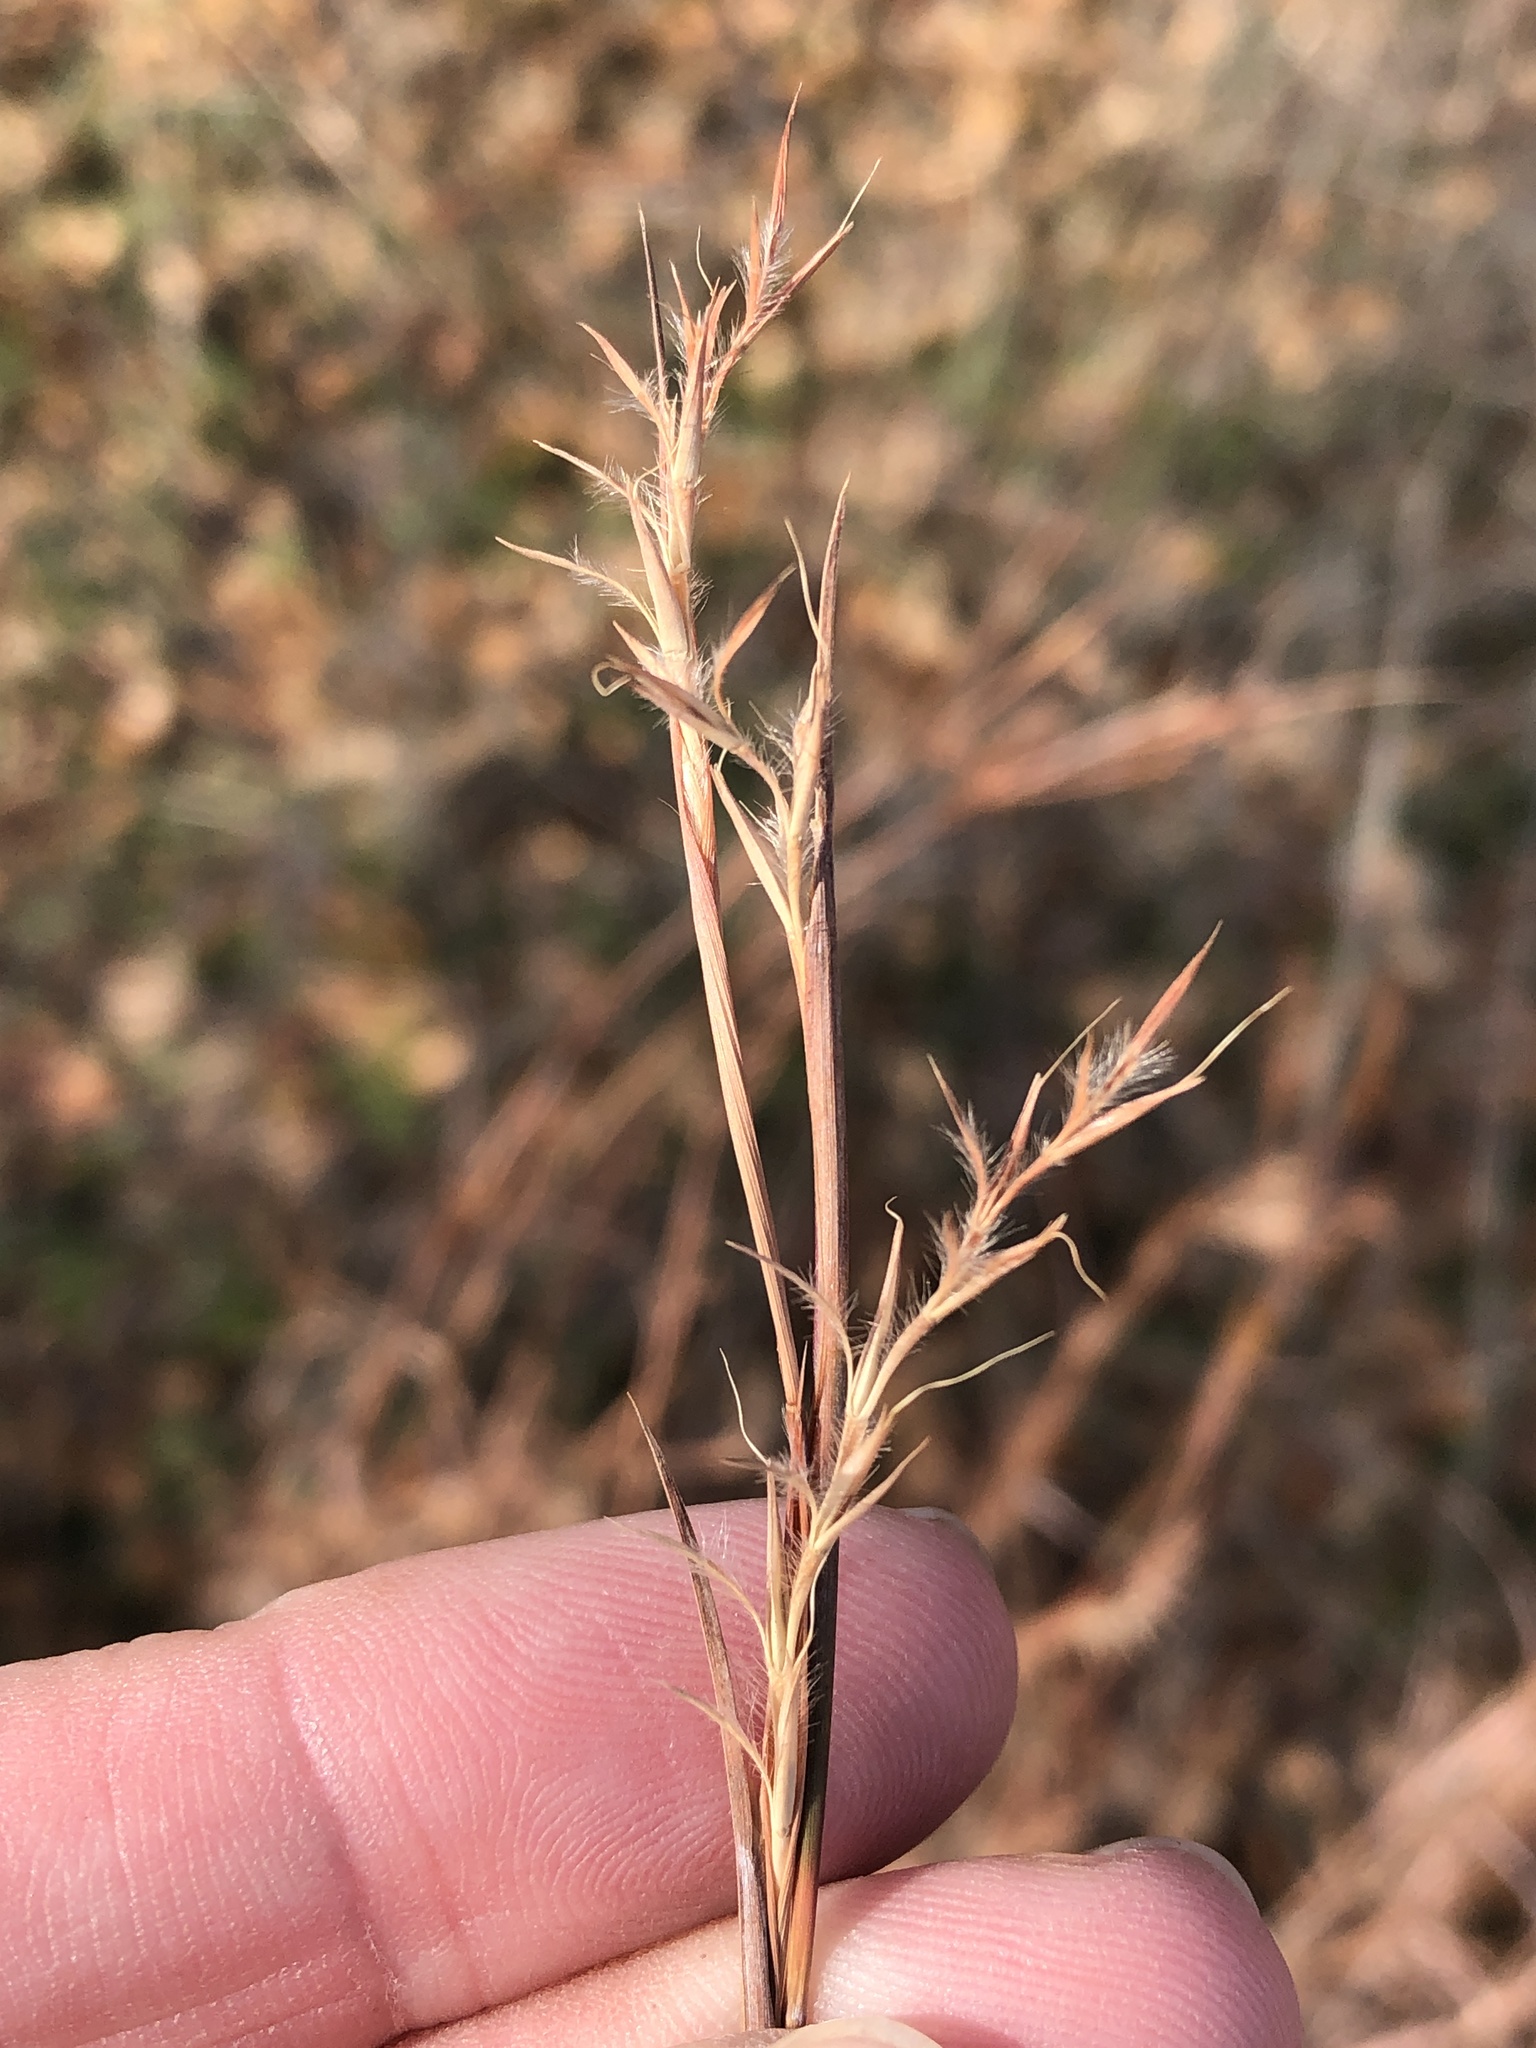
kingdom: Plantae
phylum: Tracheophyta
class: Liliopsida
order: Poales
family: Poaceae
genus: Schizachyrium
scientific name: Schizachyrium scoparium
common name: Little bluestem
